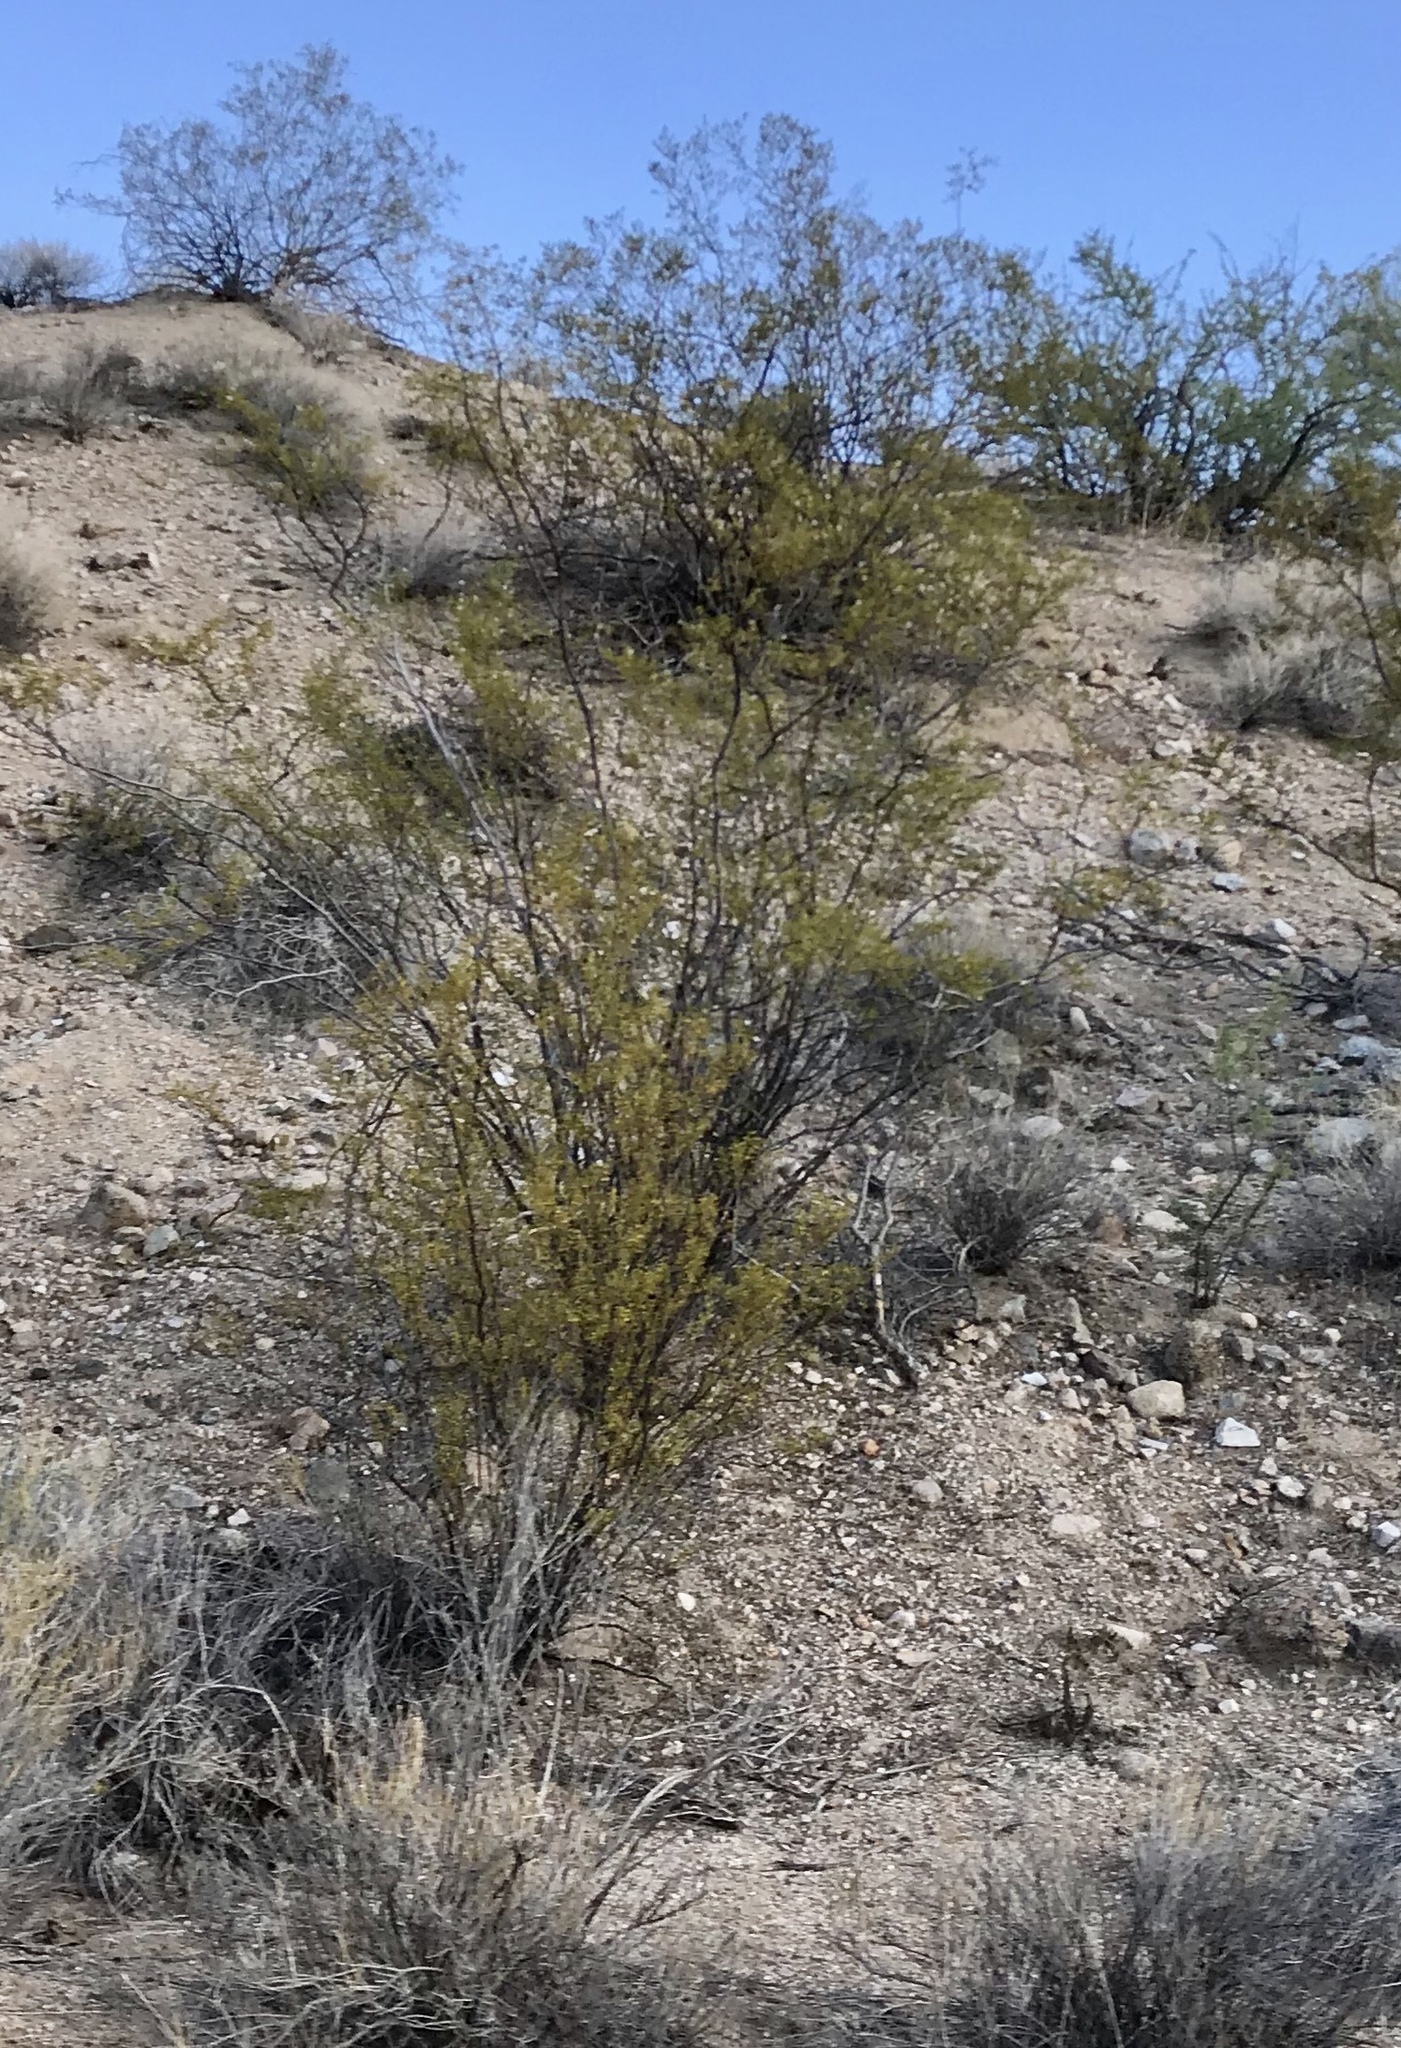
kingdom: Plantae
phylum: Tracheophyta
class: Magnoliopsida
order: Zygophyllales
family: Zygophyllaceae
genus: Larrea
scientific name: Larrea tridentata
